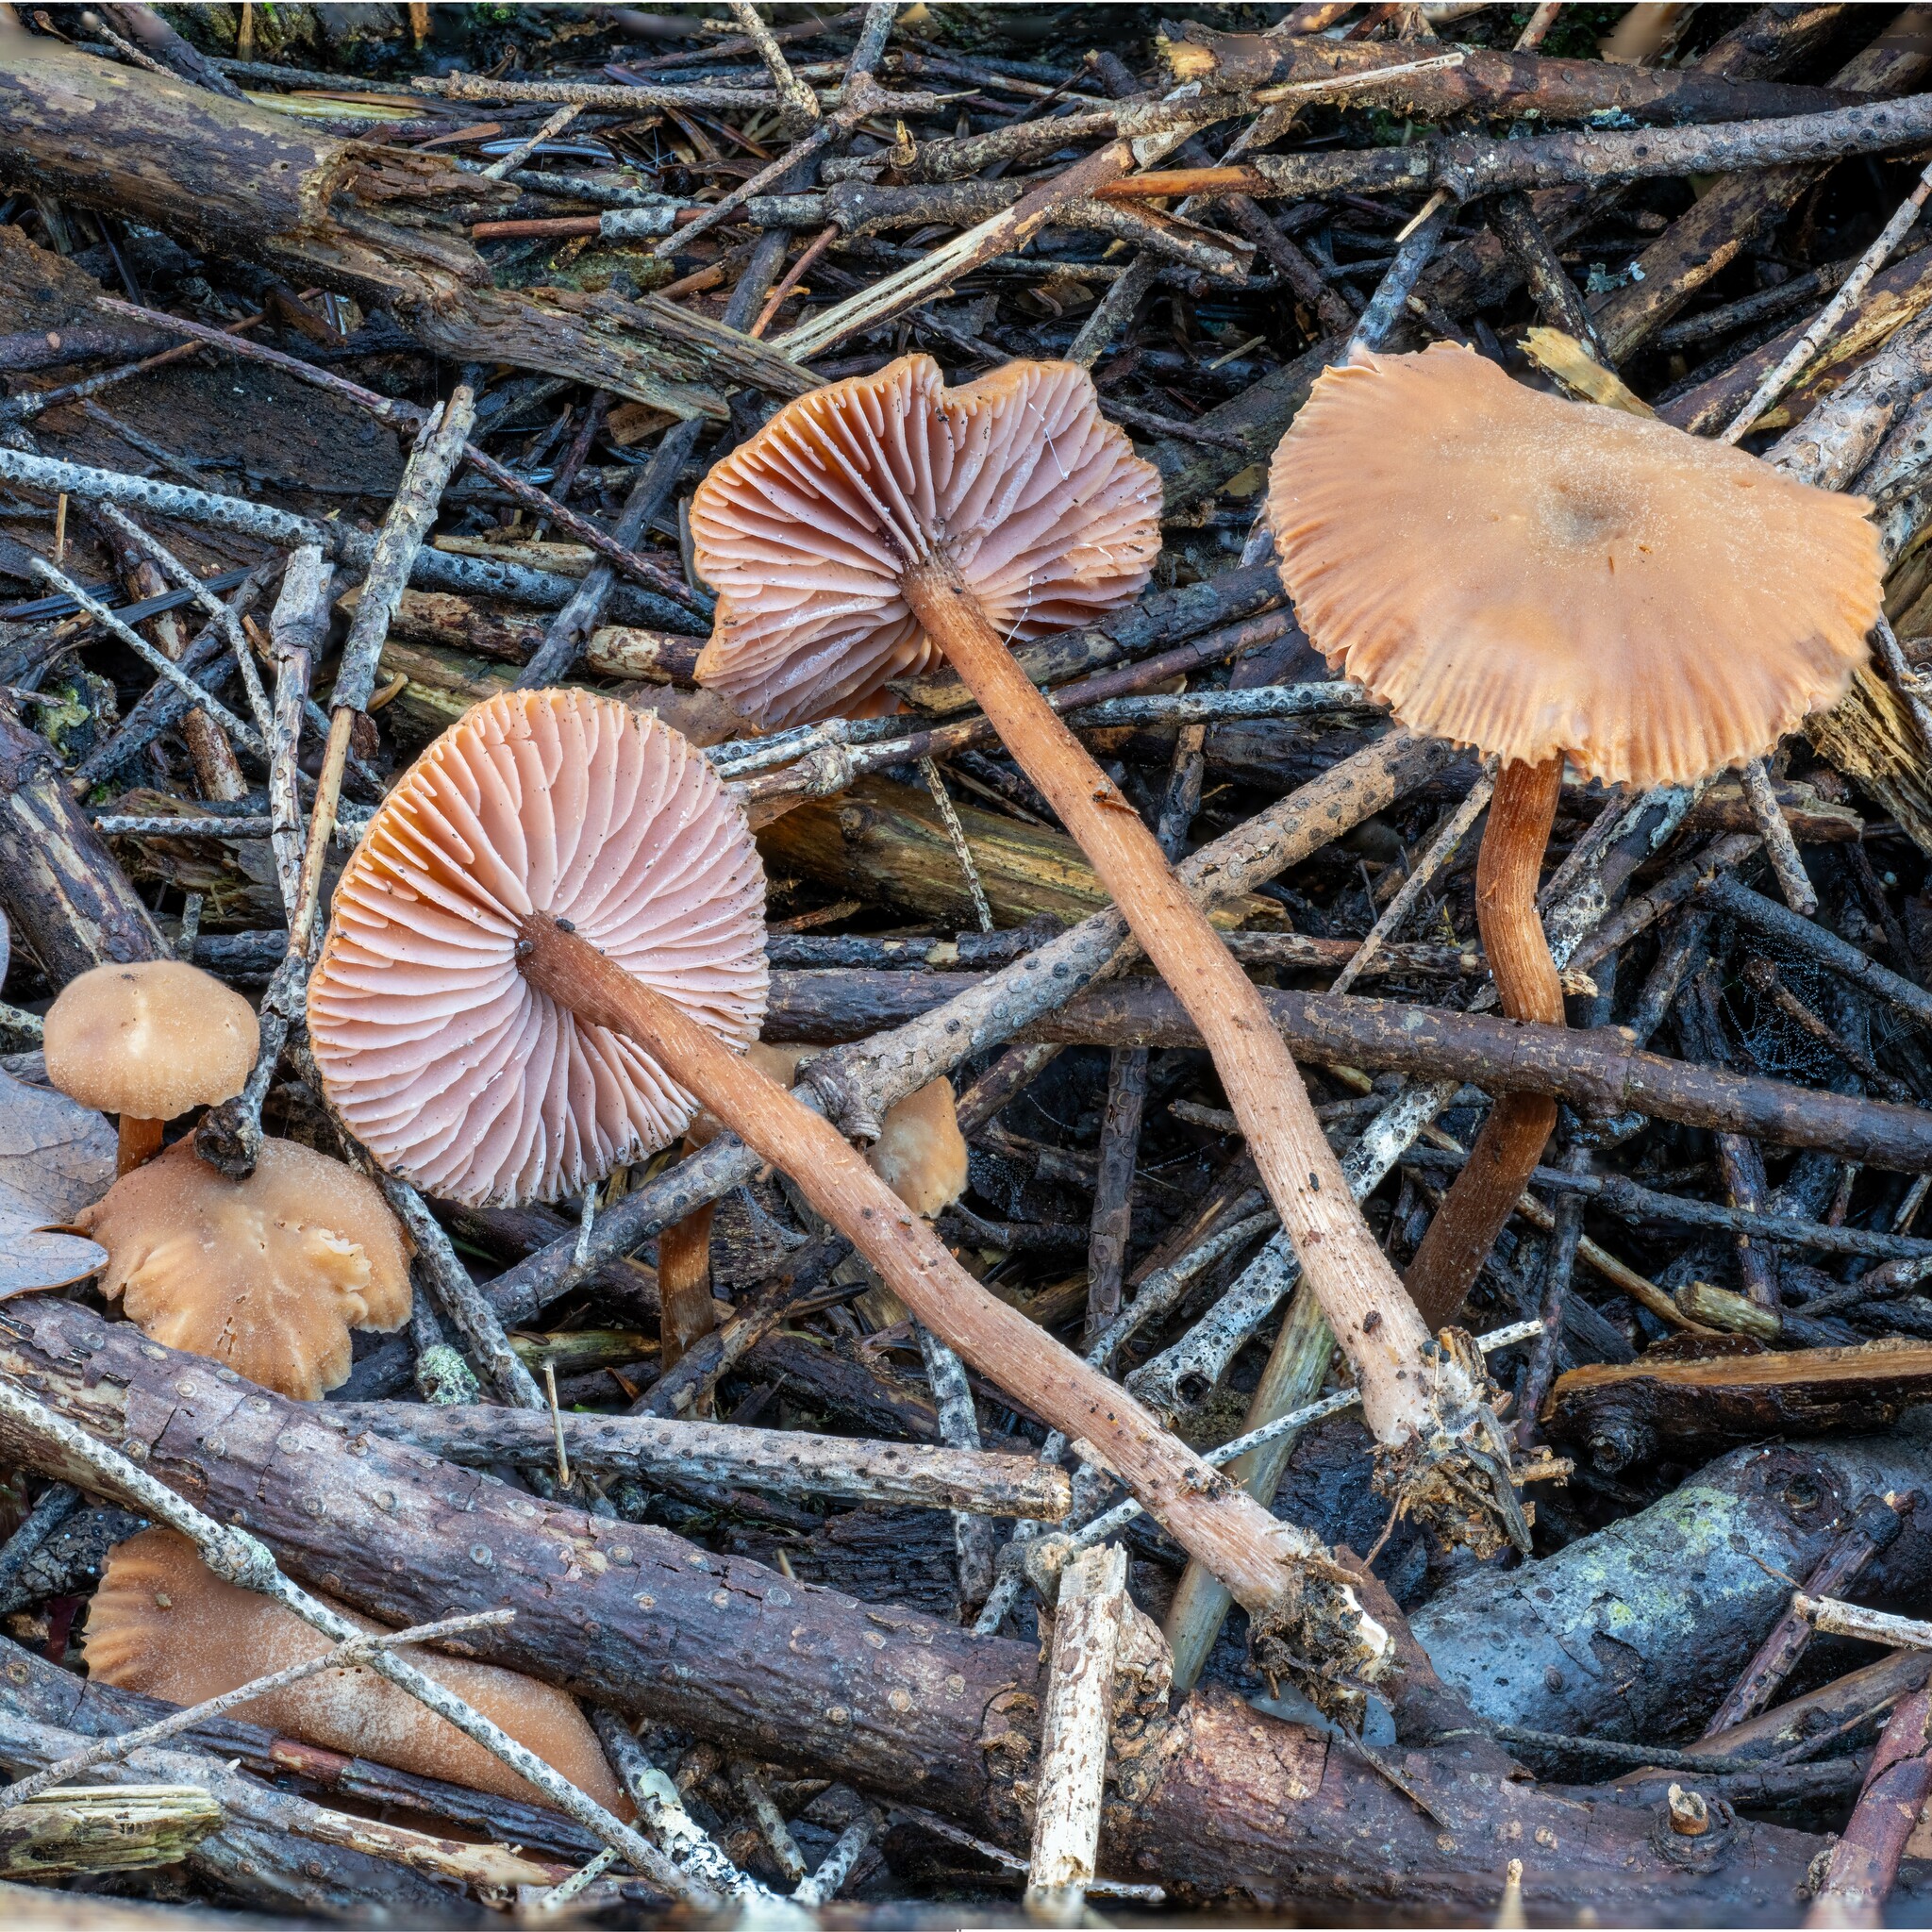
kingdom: Fungi
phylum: Basidiomycota
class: Agaricomycetes
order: Agaricales
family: Hydnangiaceae
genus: Laccaria
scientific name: Laccaria laccata
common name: Deceiver
